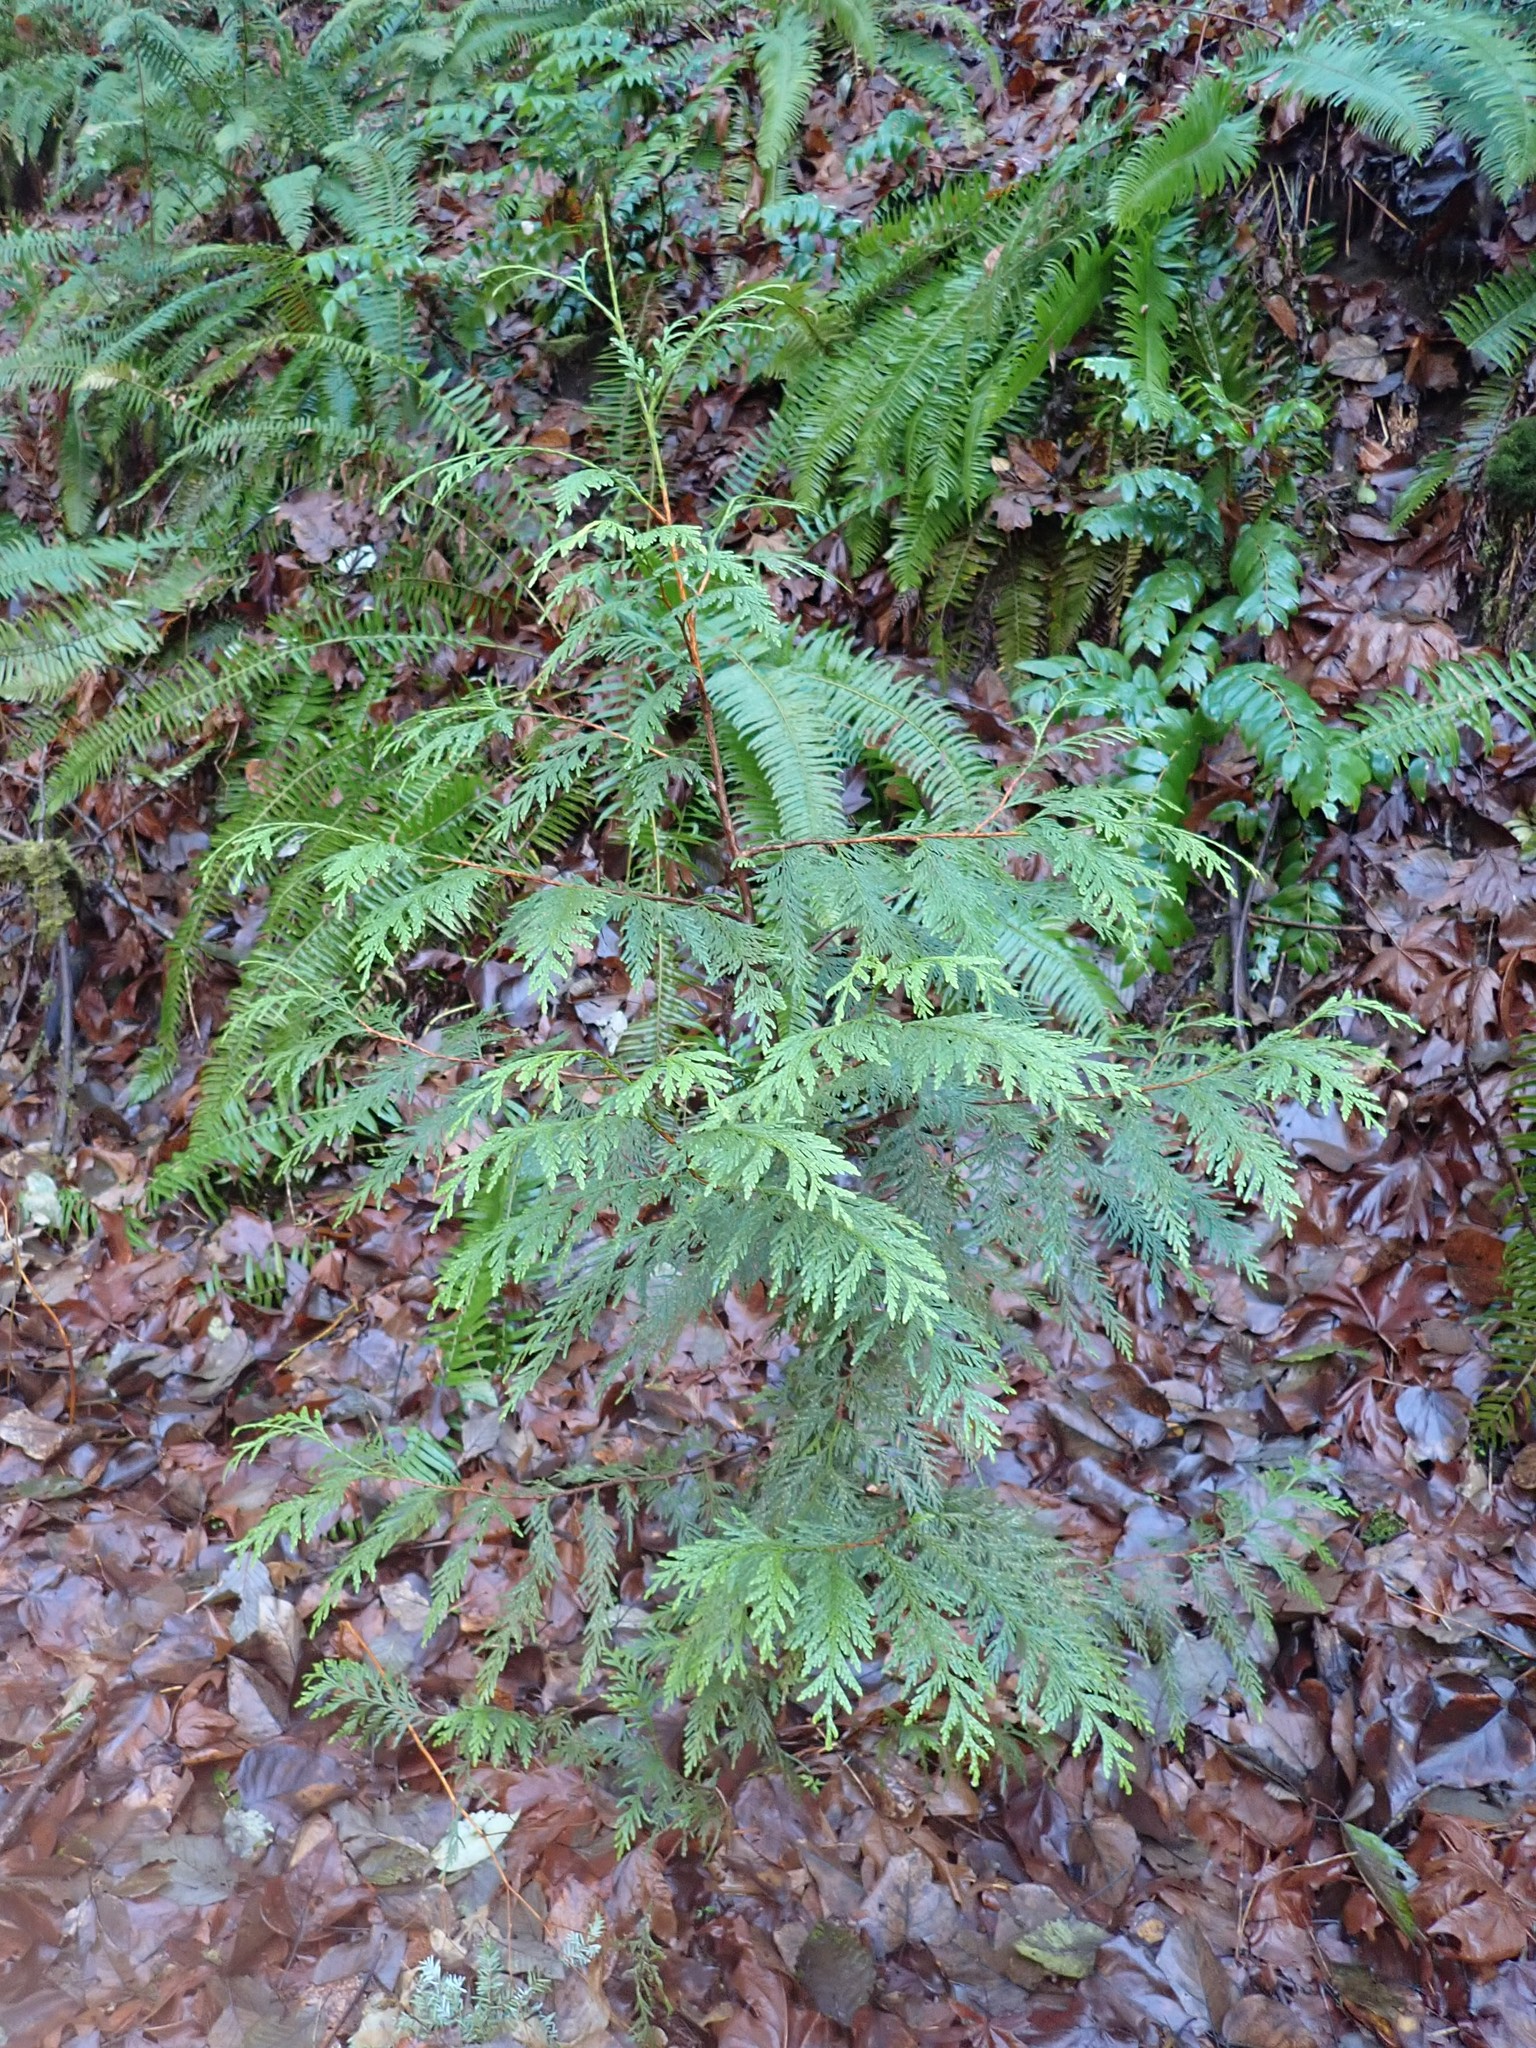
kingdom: Plantae
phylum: Tracheophyta
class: Pinopsida
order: Pinales
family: Cupressaceae
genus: Thuja
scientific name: Thuja plicata
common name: Western red-cedar
